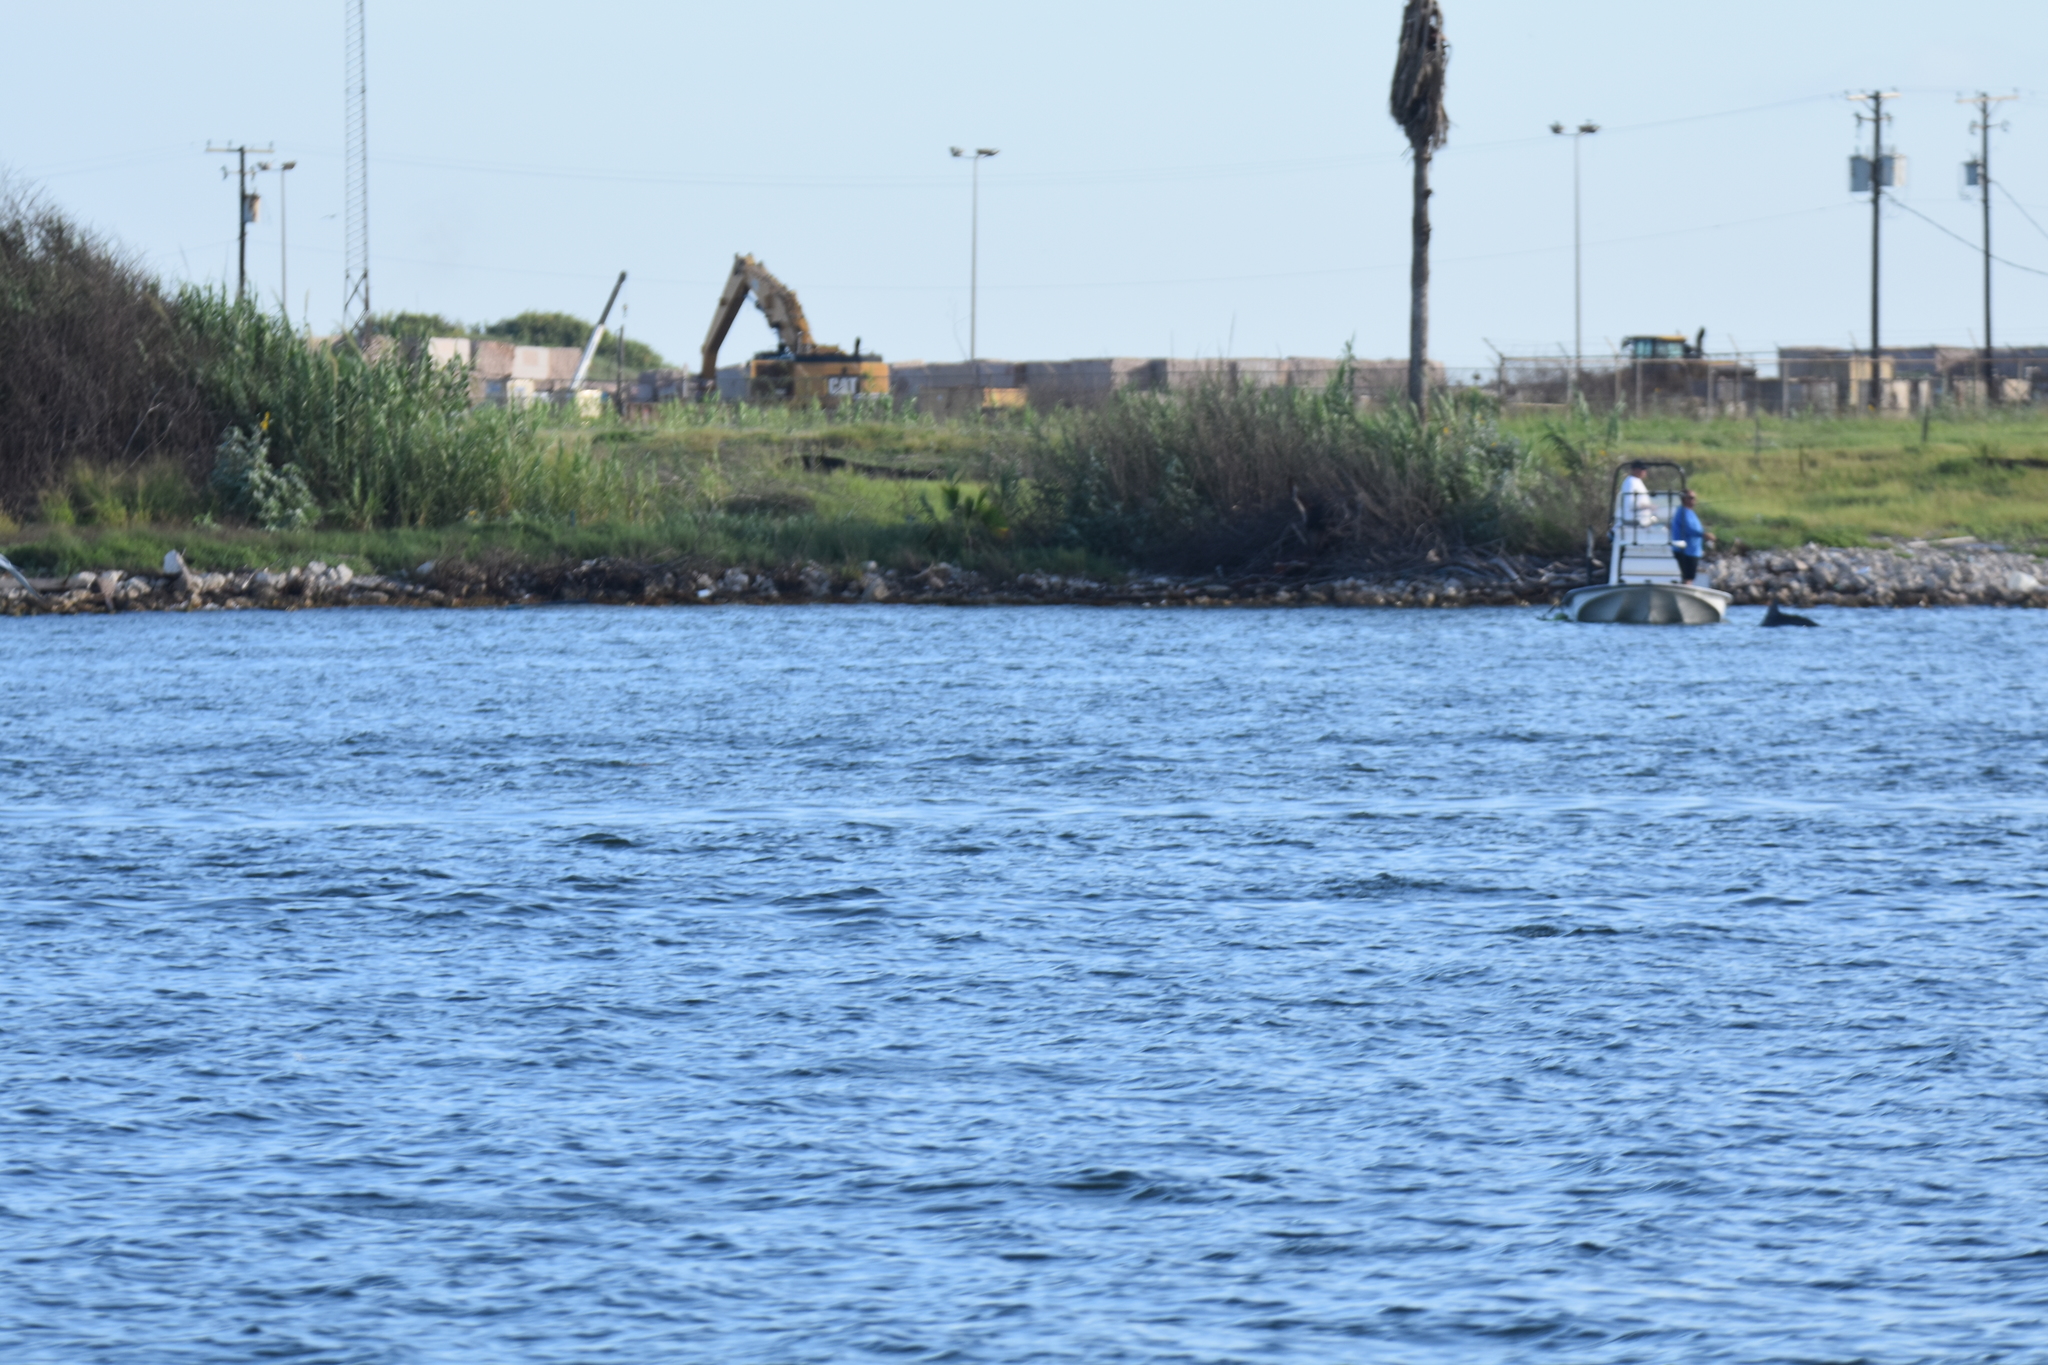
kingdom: Animalia
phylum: Chordata
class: Mammalia
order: Cetacea
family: Delphinidae
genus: Tursiops
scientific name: Tursiops truncatus
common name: Bottlenose dolphin
